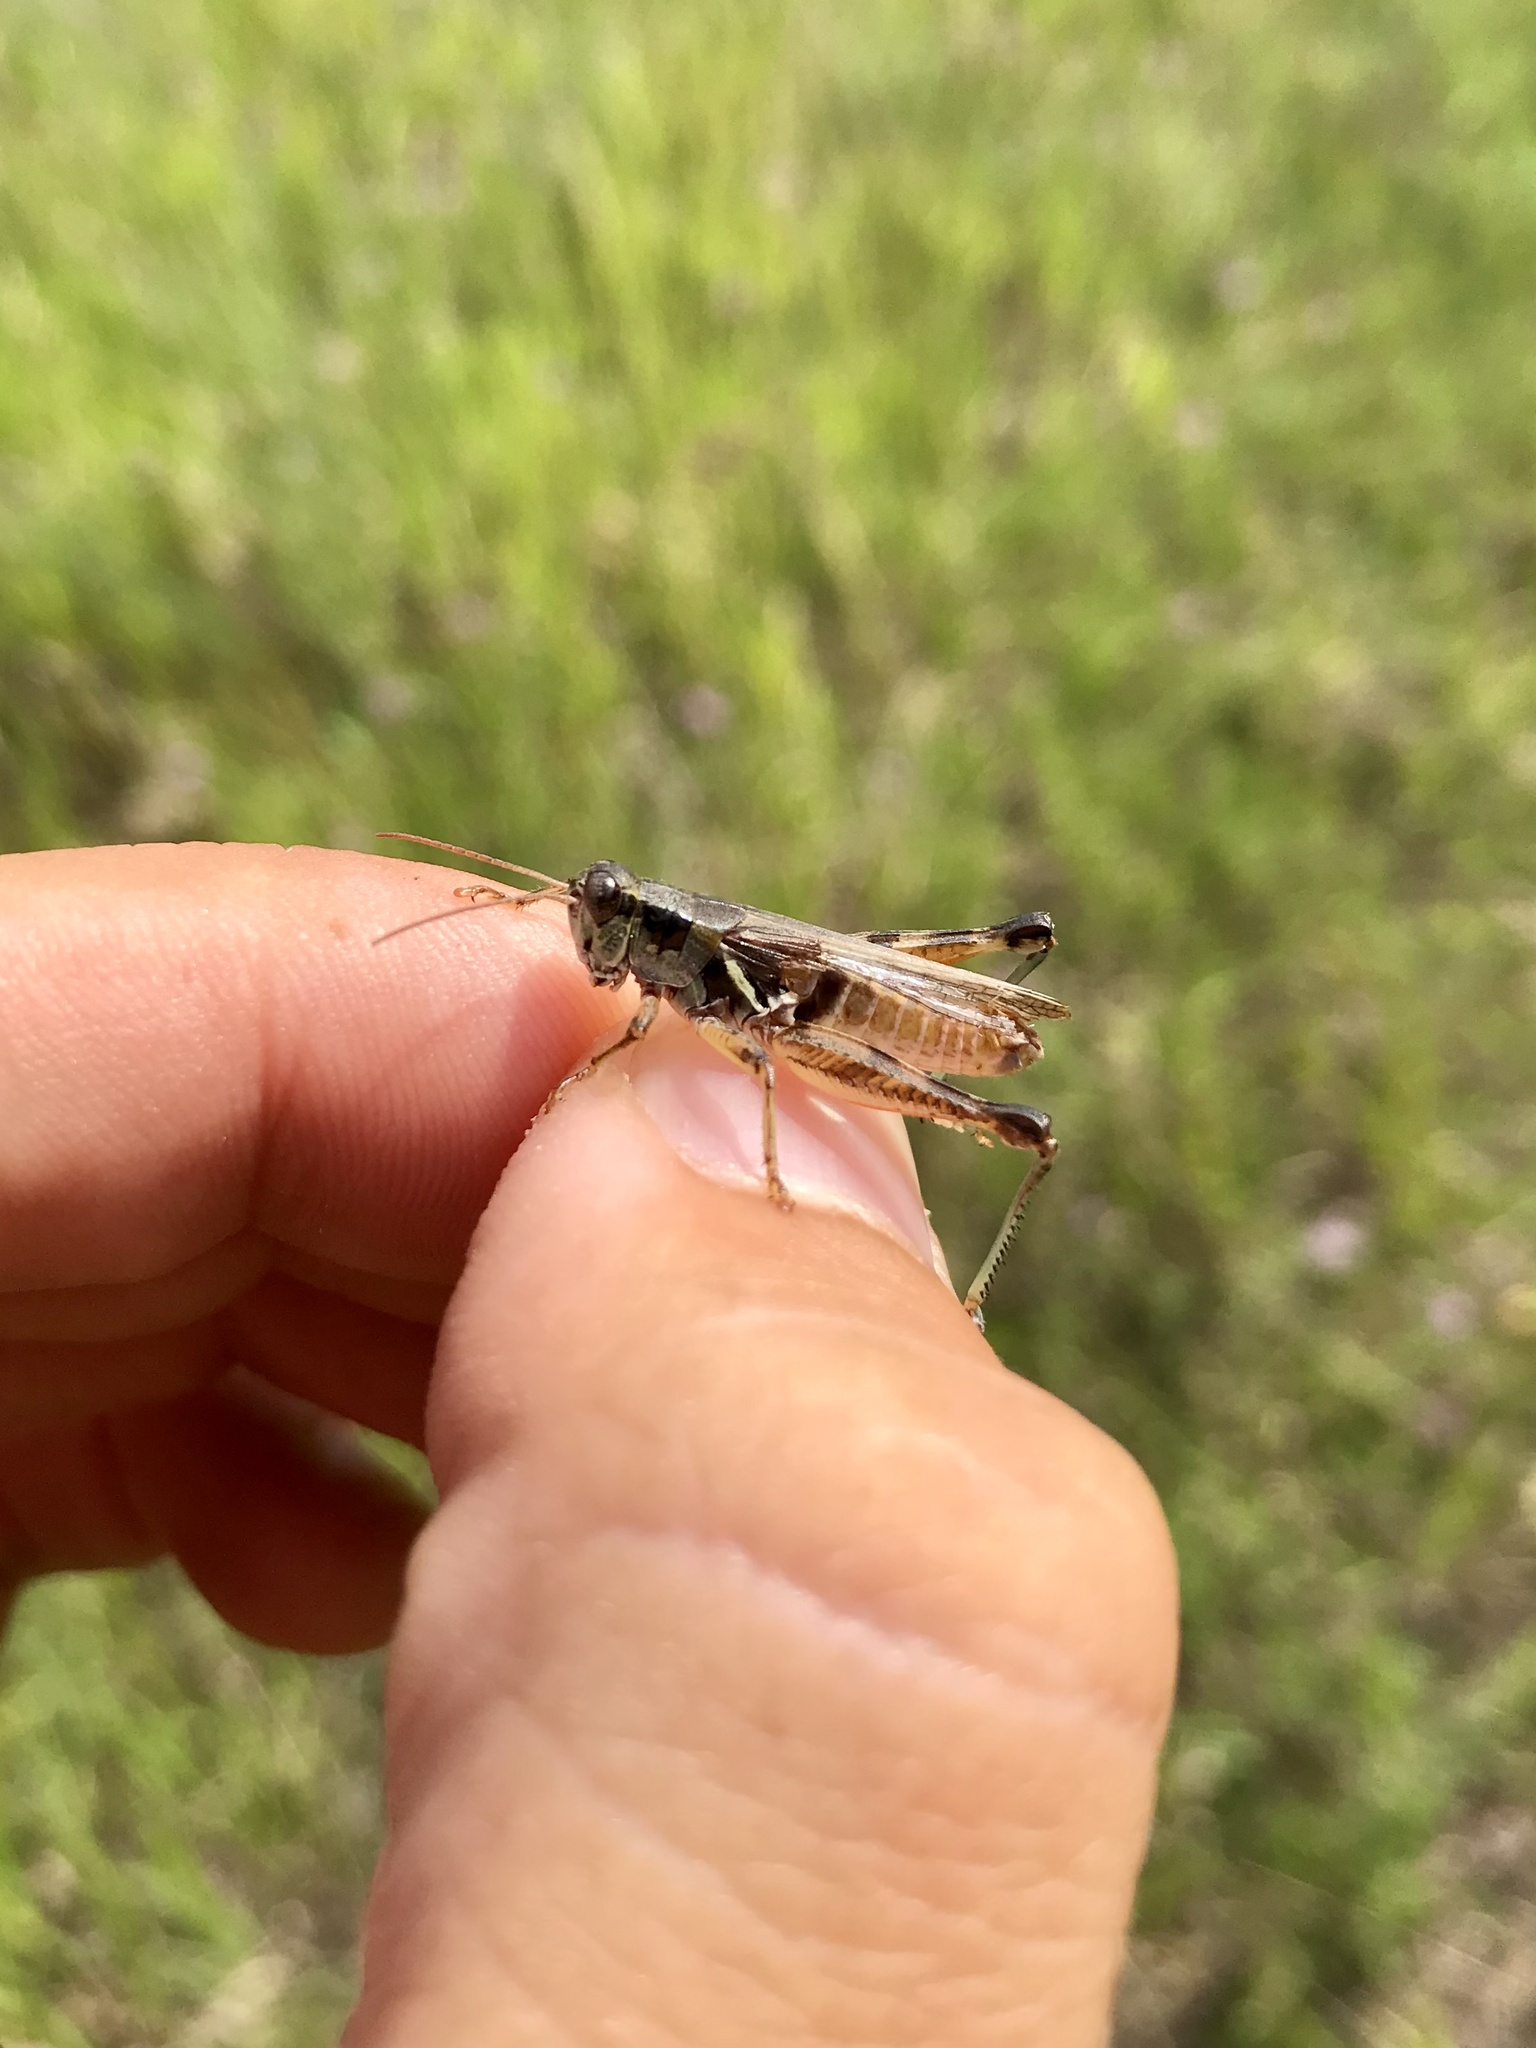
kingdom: Animalia
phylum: Arthropoda
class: Insecta
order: Orthoptera
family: Acrididae
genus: Melanoplus
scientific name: Melanoplus confusus
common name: Little pasture locust
